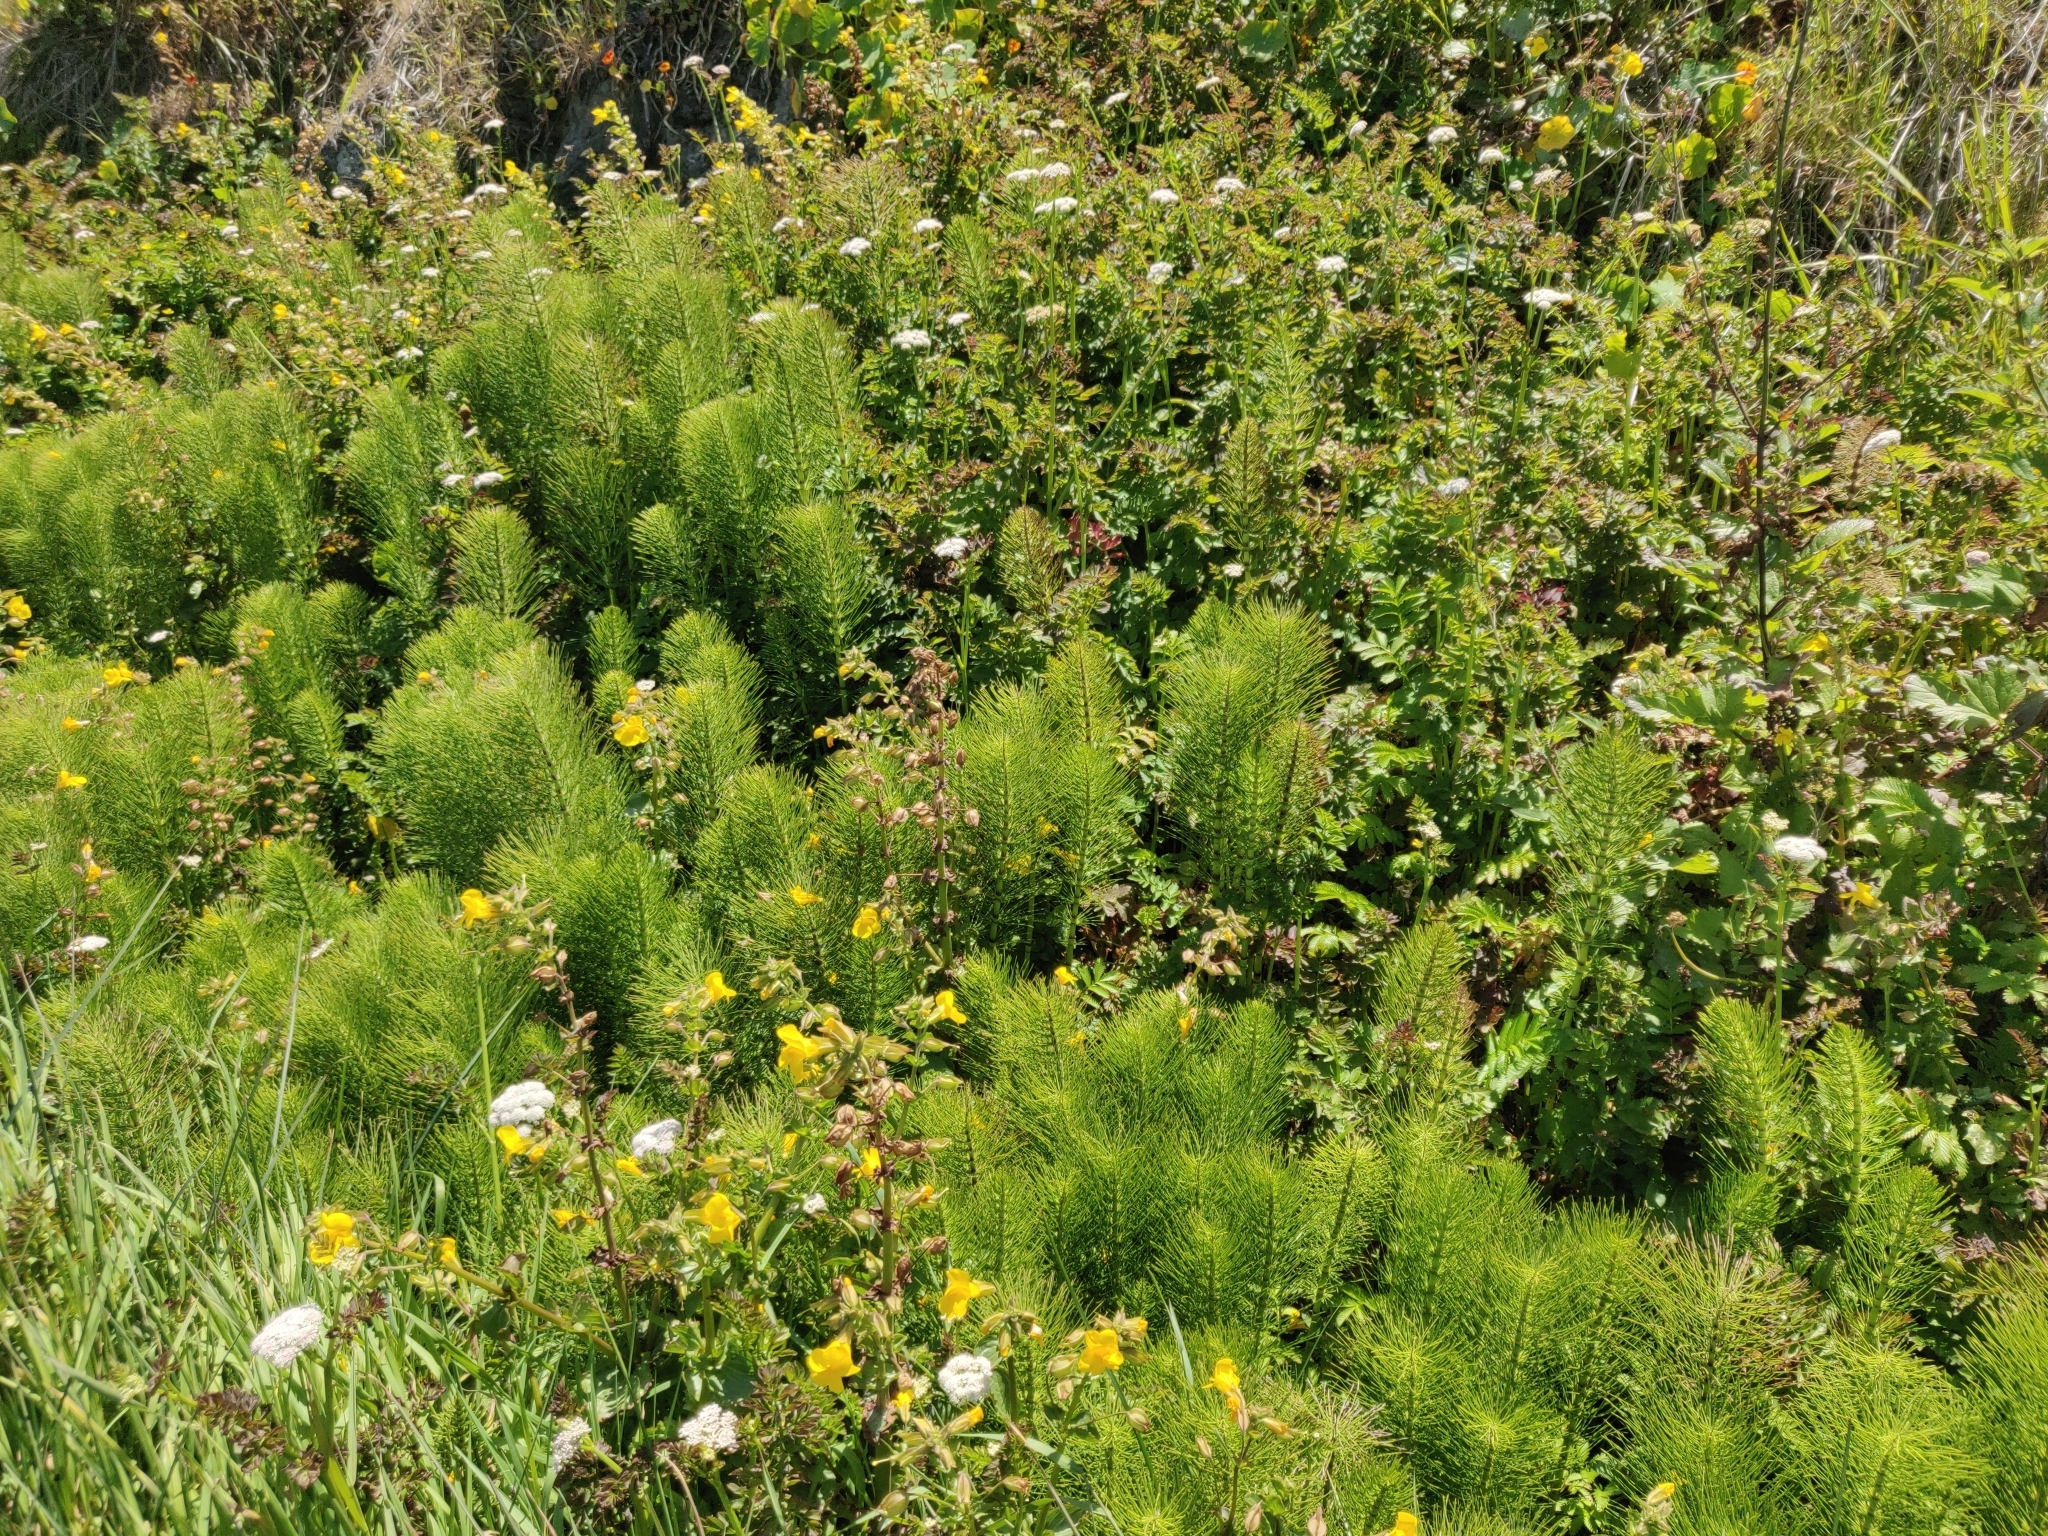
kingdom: Plantae
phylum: Tracheophyta
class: Magnoliopsida
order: Lamiales
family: Phrymaceae
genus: Erythranthe
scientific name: Erythranthe guttata
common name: Monkeyflower
